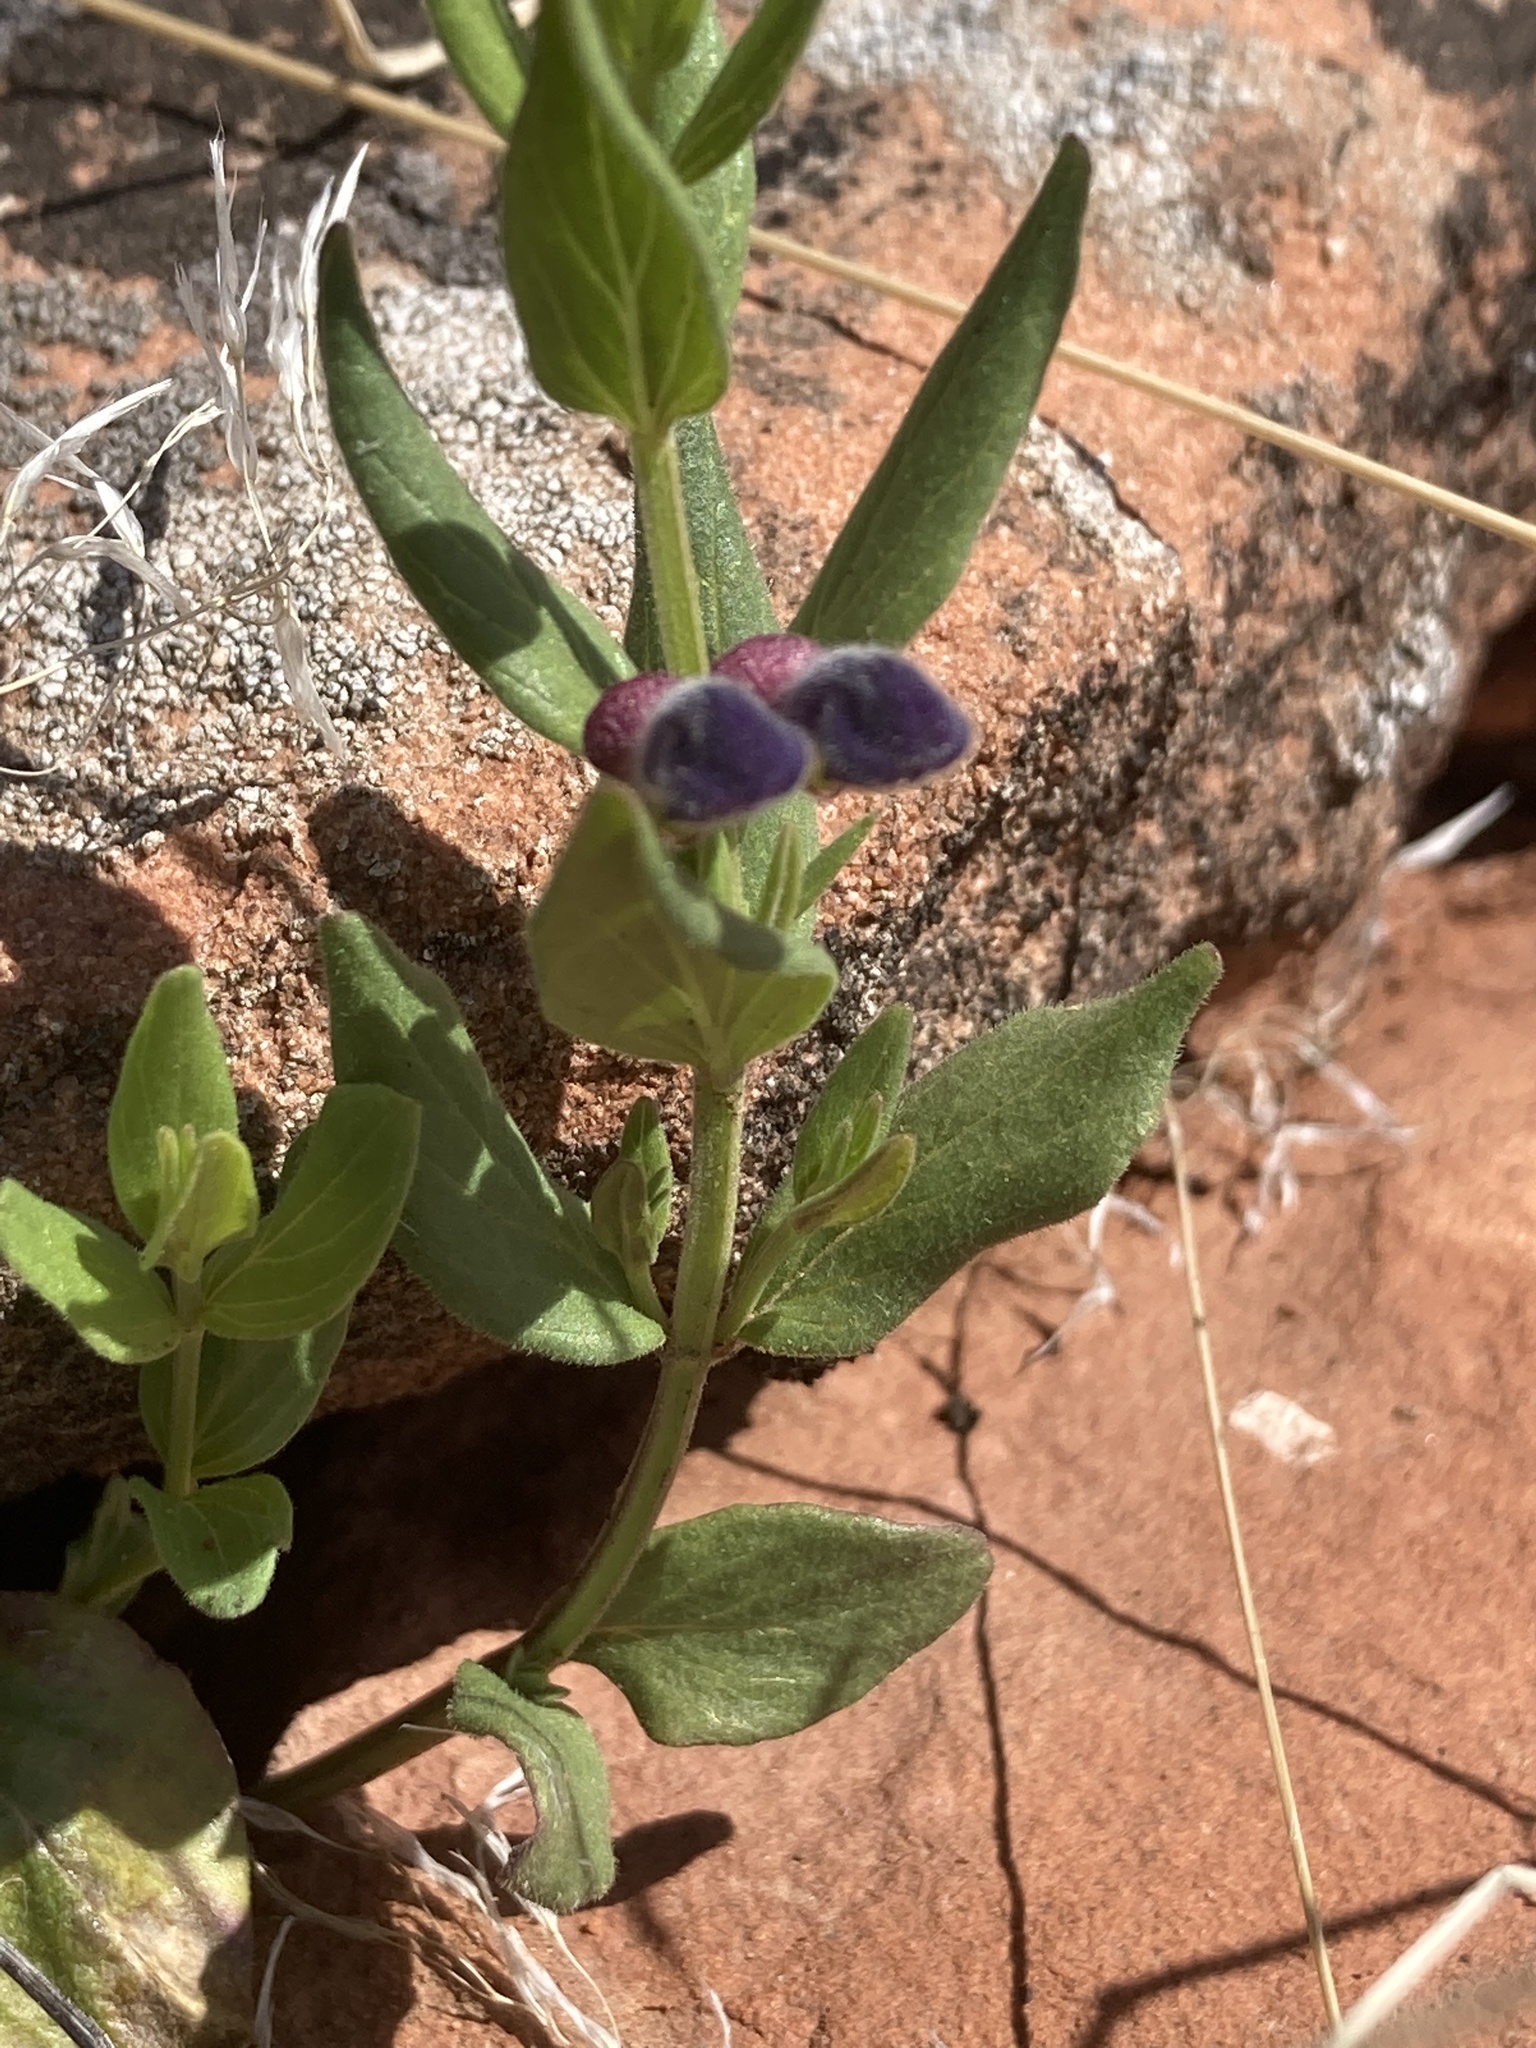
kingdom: Plantae
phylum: Tracheophyta
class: Magnoliopsida
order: Lamiales
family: Lamiaceae
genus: Scutellaria
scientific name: Scutellaria brittonii
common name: Britton's skullcap
